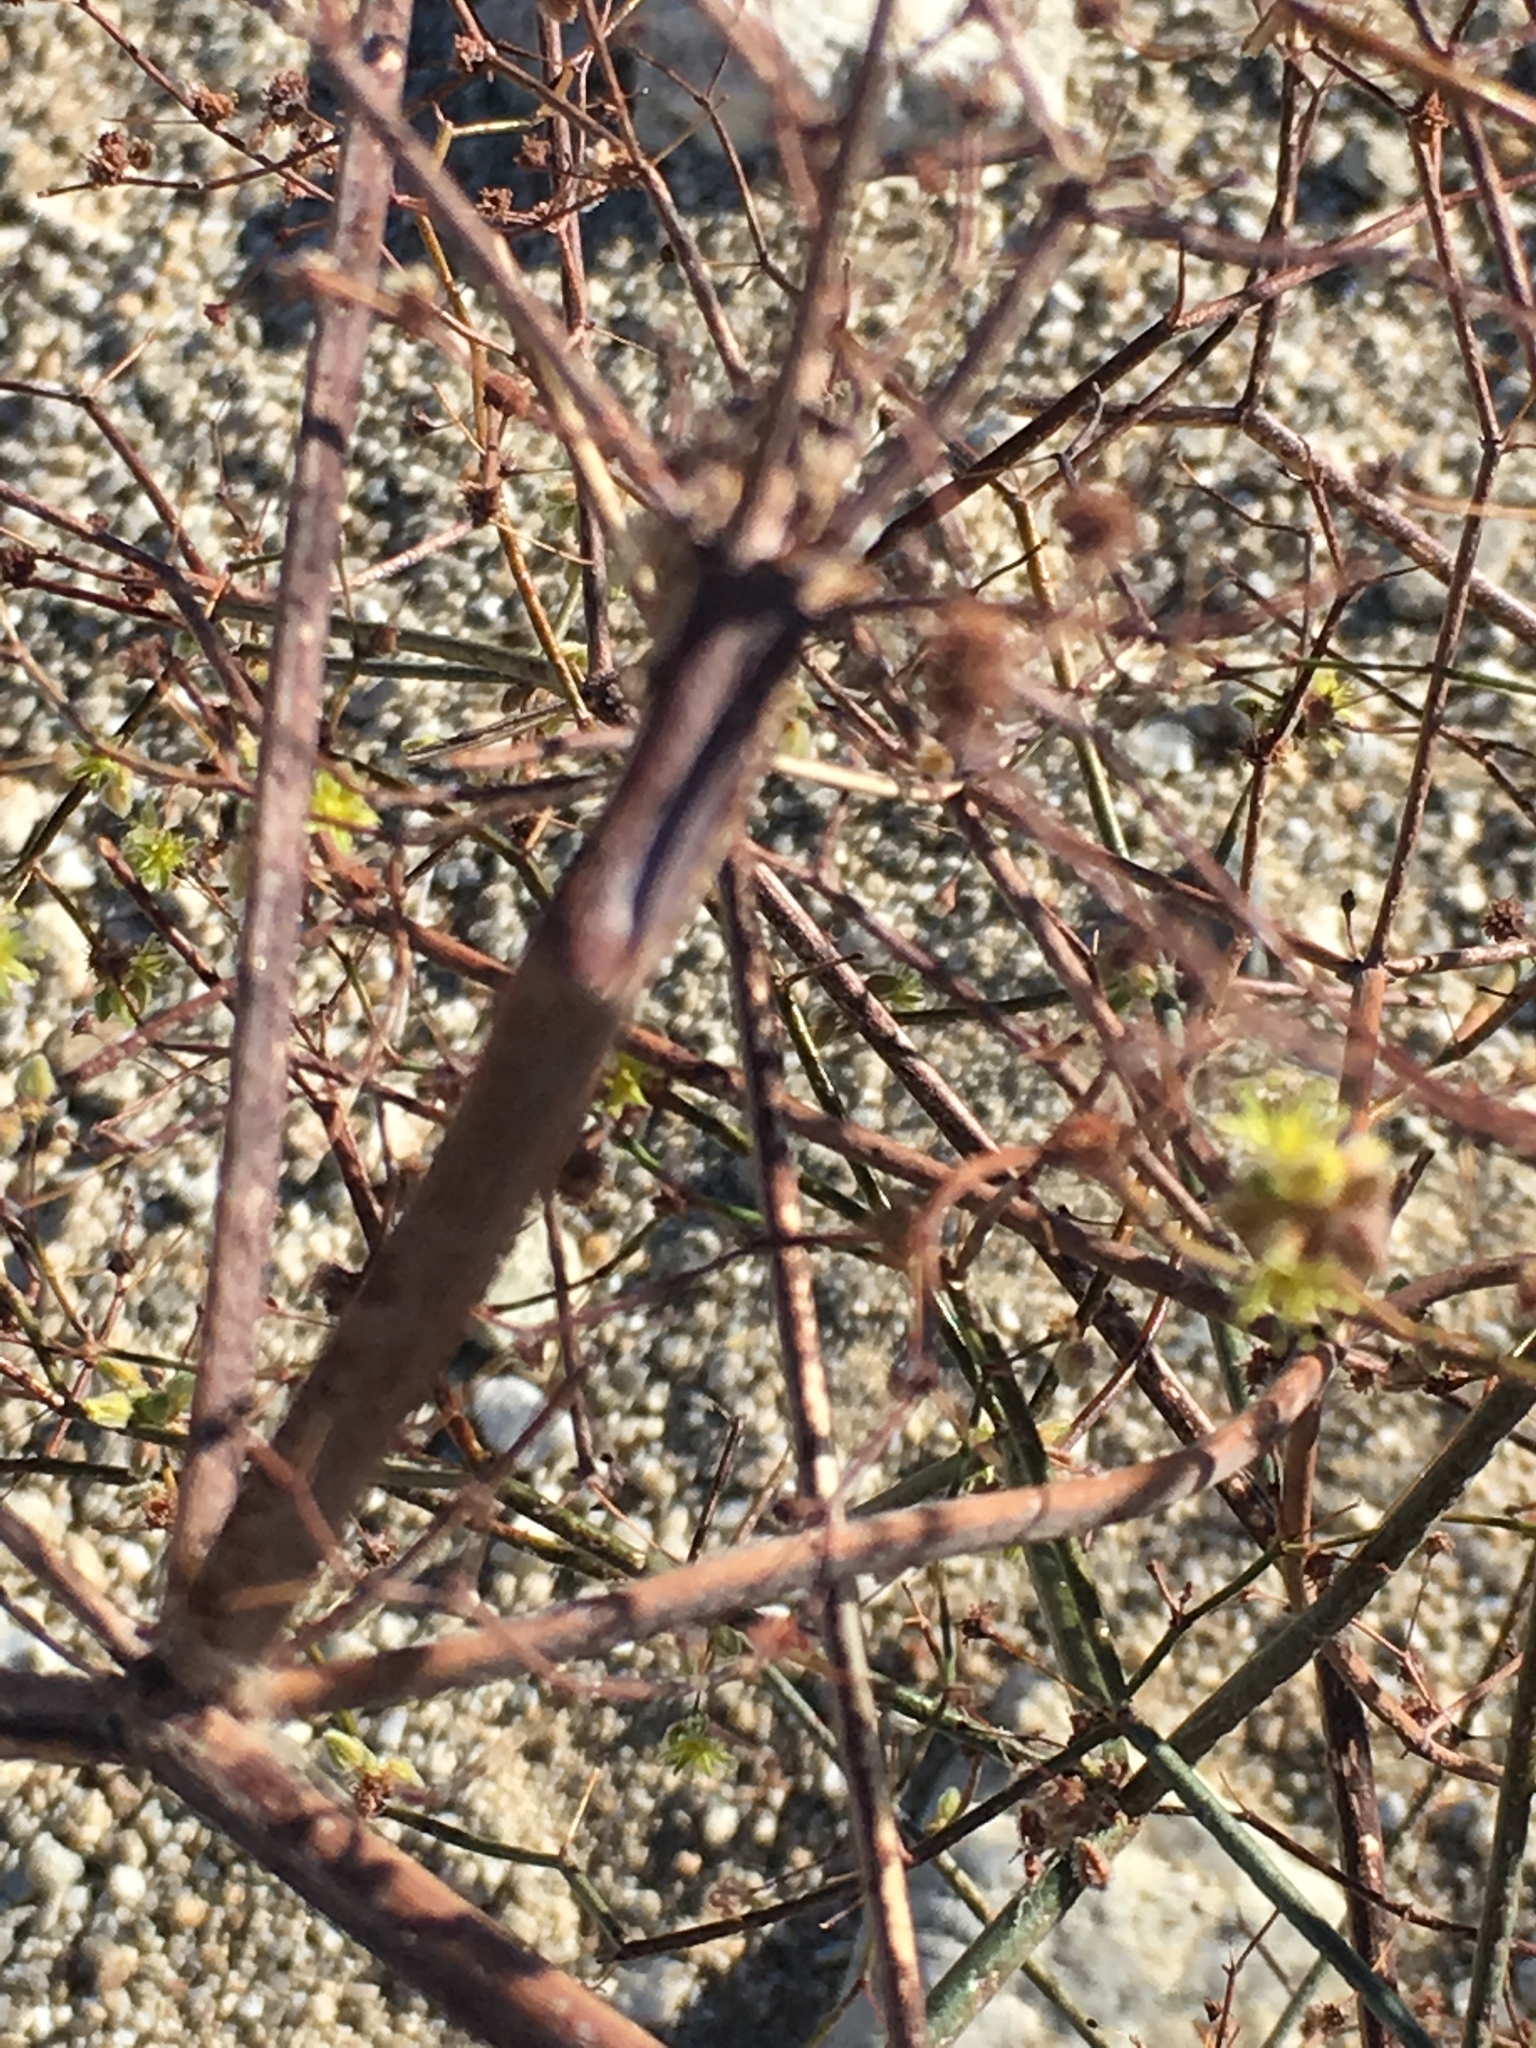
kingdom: Plantae
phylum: Tracheophyta
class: Magnoliopsida
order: Caryophyllales
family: Polygonaceae
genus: Eriogonum
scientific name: Eriogonum inflatum
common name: Desert trumpet
